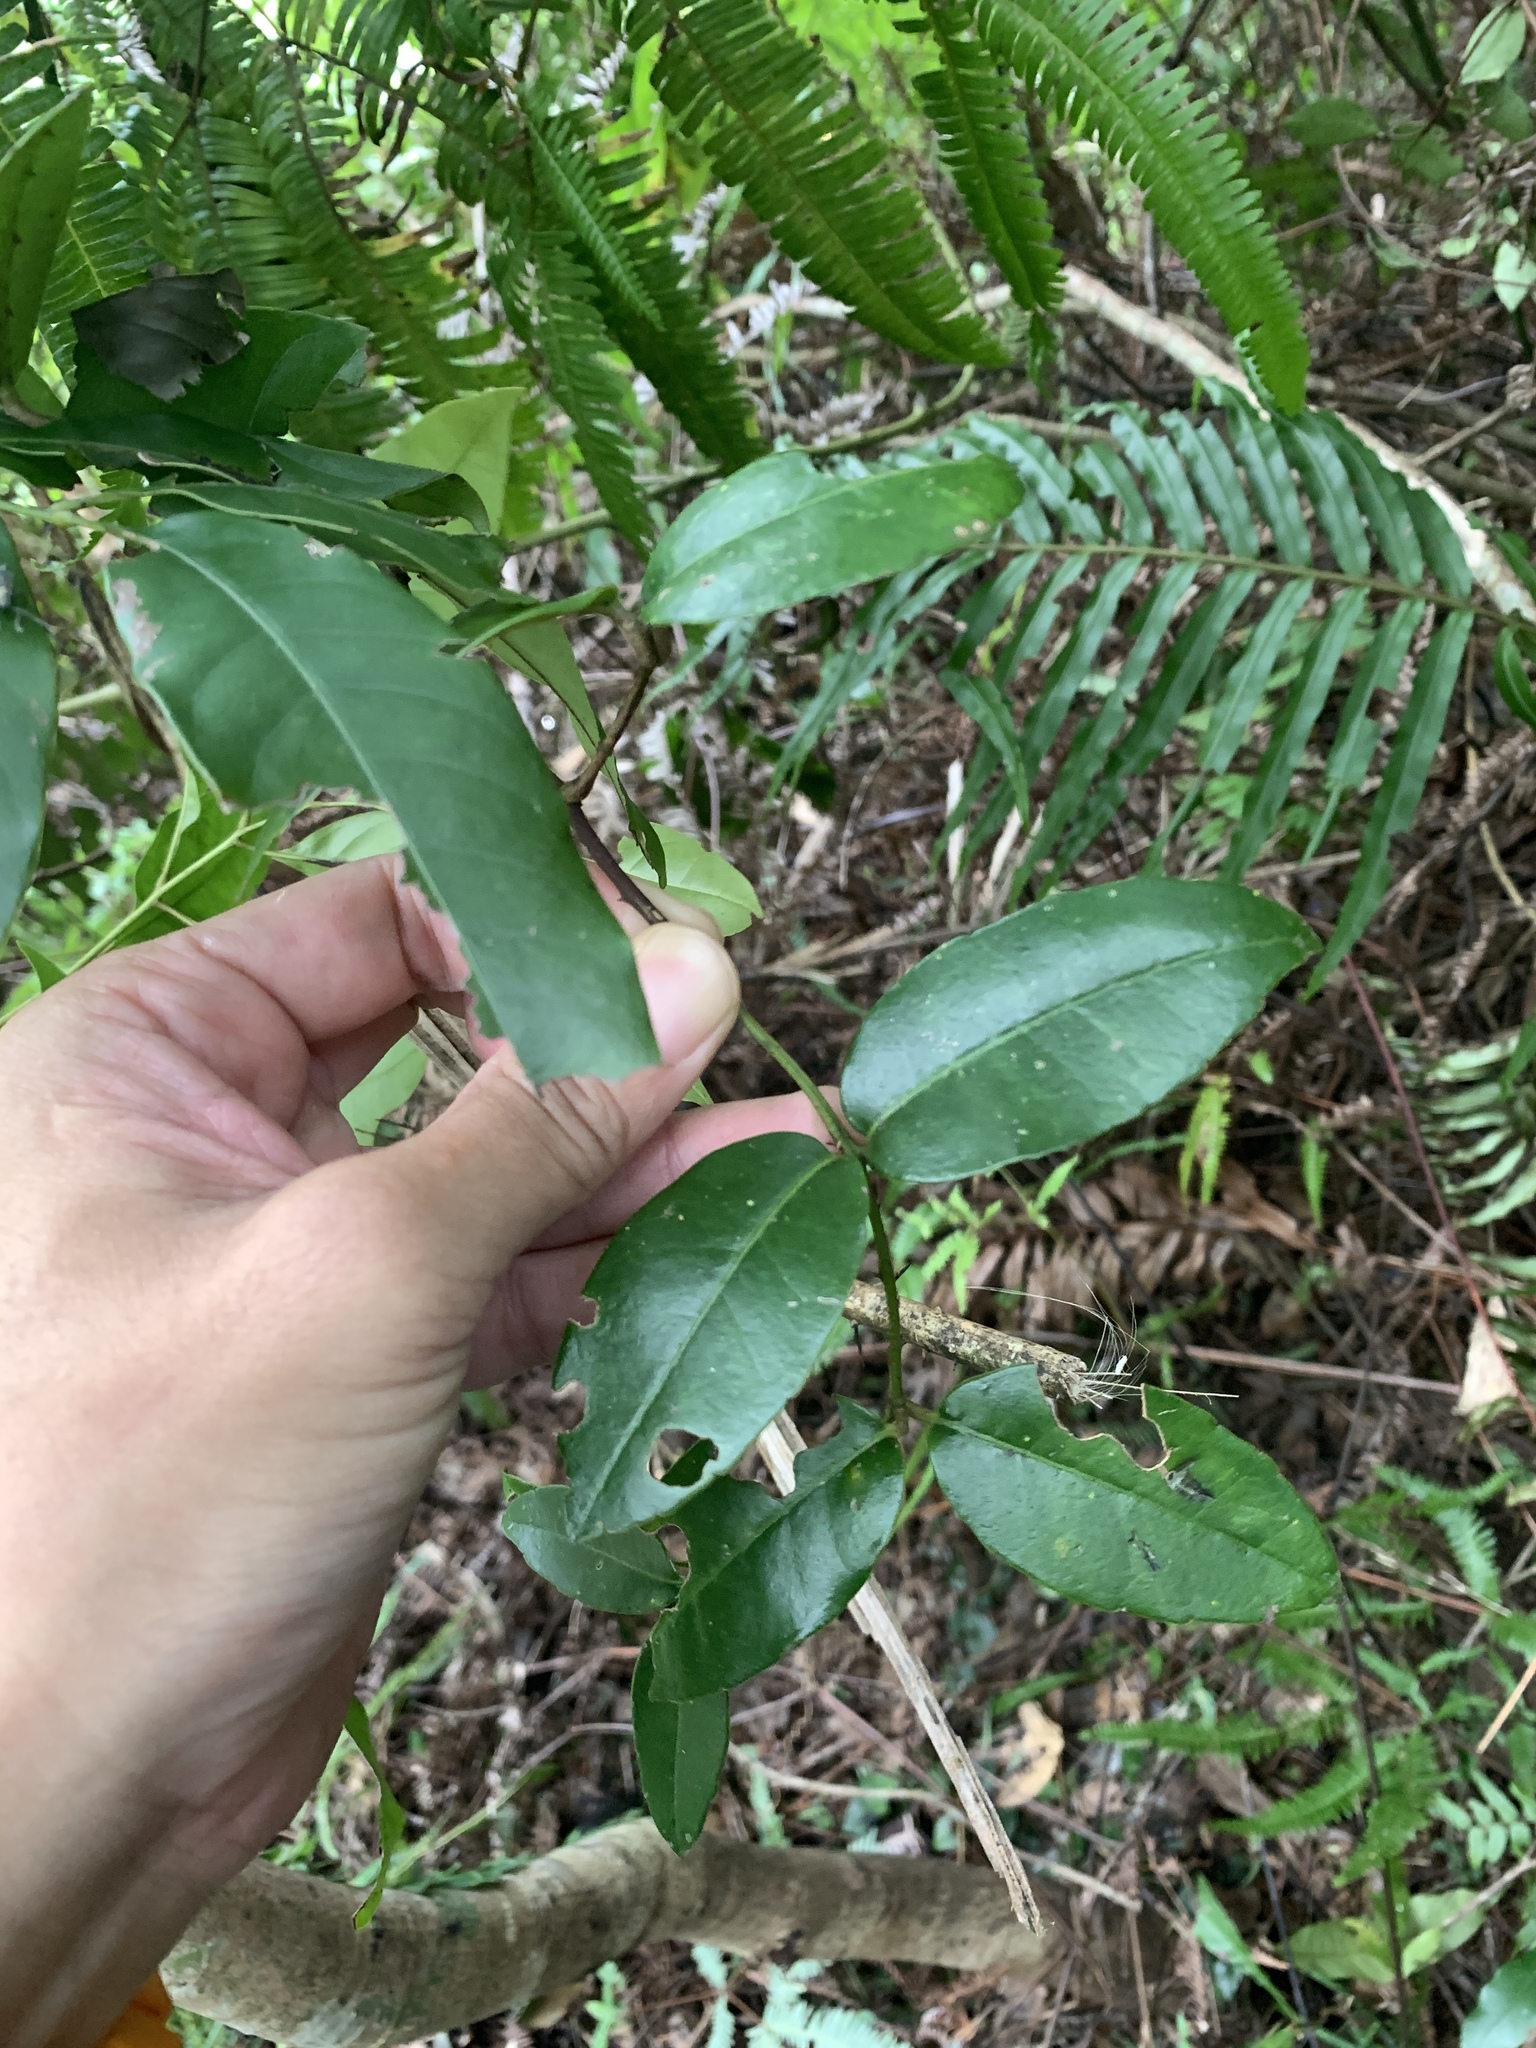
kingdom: Plantae
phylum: Tracheophyta
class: Magnoliopsida
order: Sapindales
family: Rutaceae
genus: Zanthoxylum
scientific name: Zanthoxylum nitidum
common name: Shiny-leaf prickly-ash
